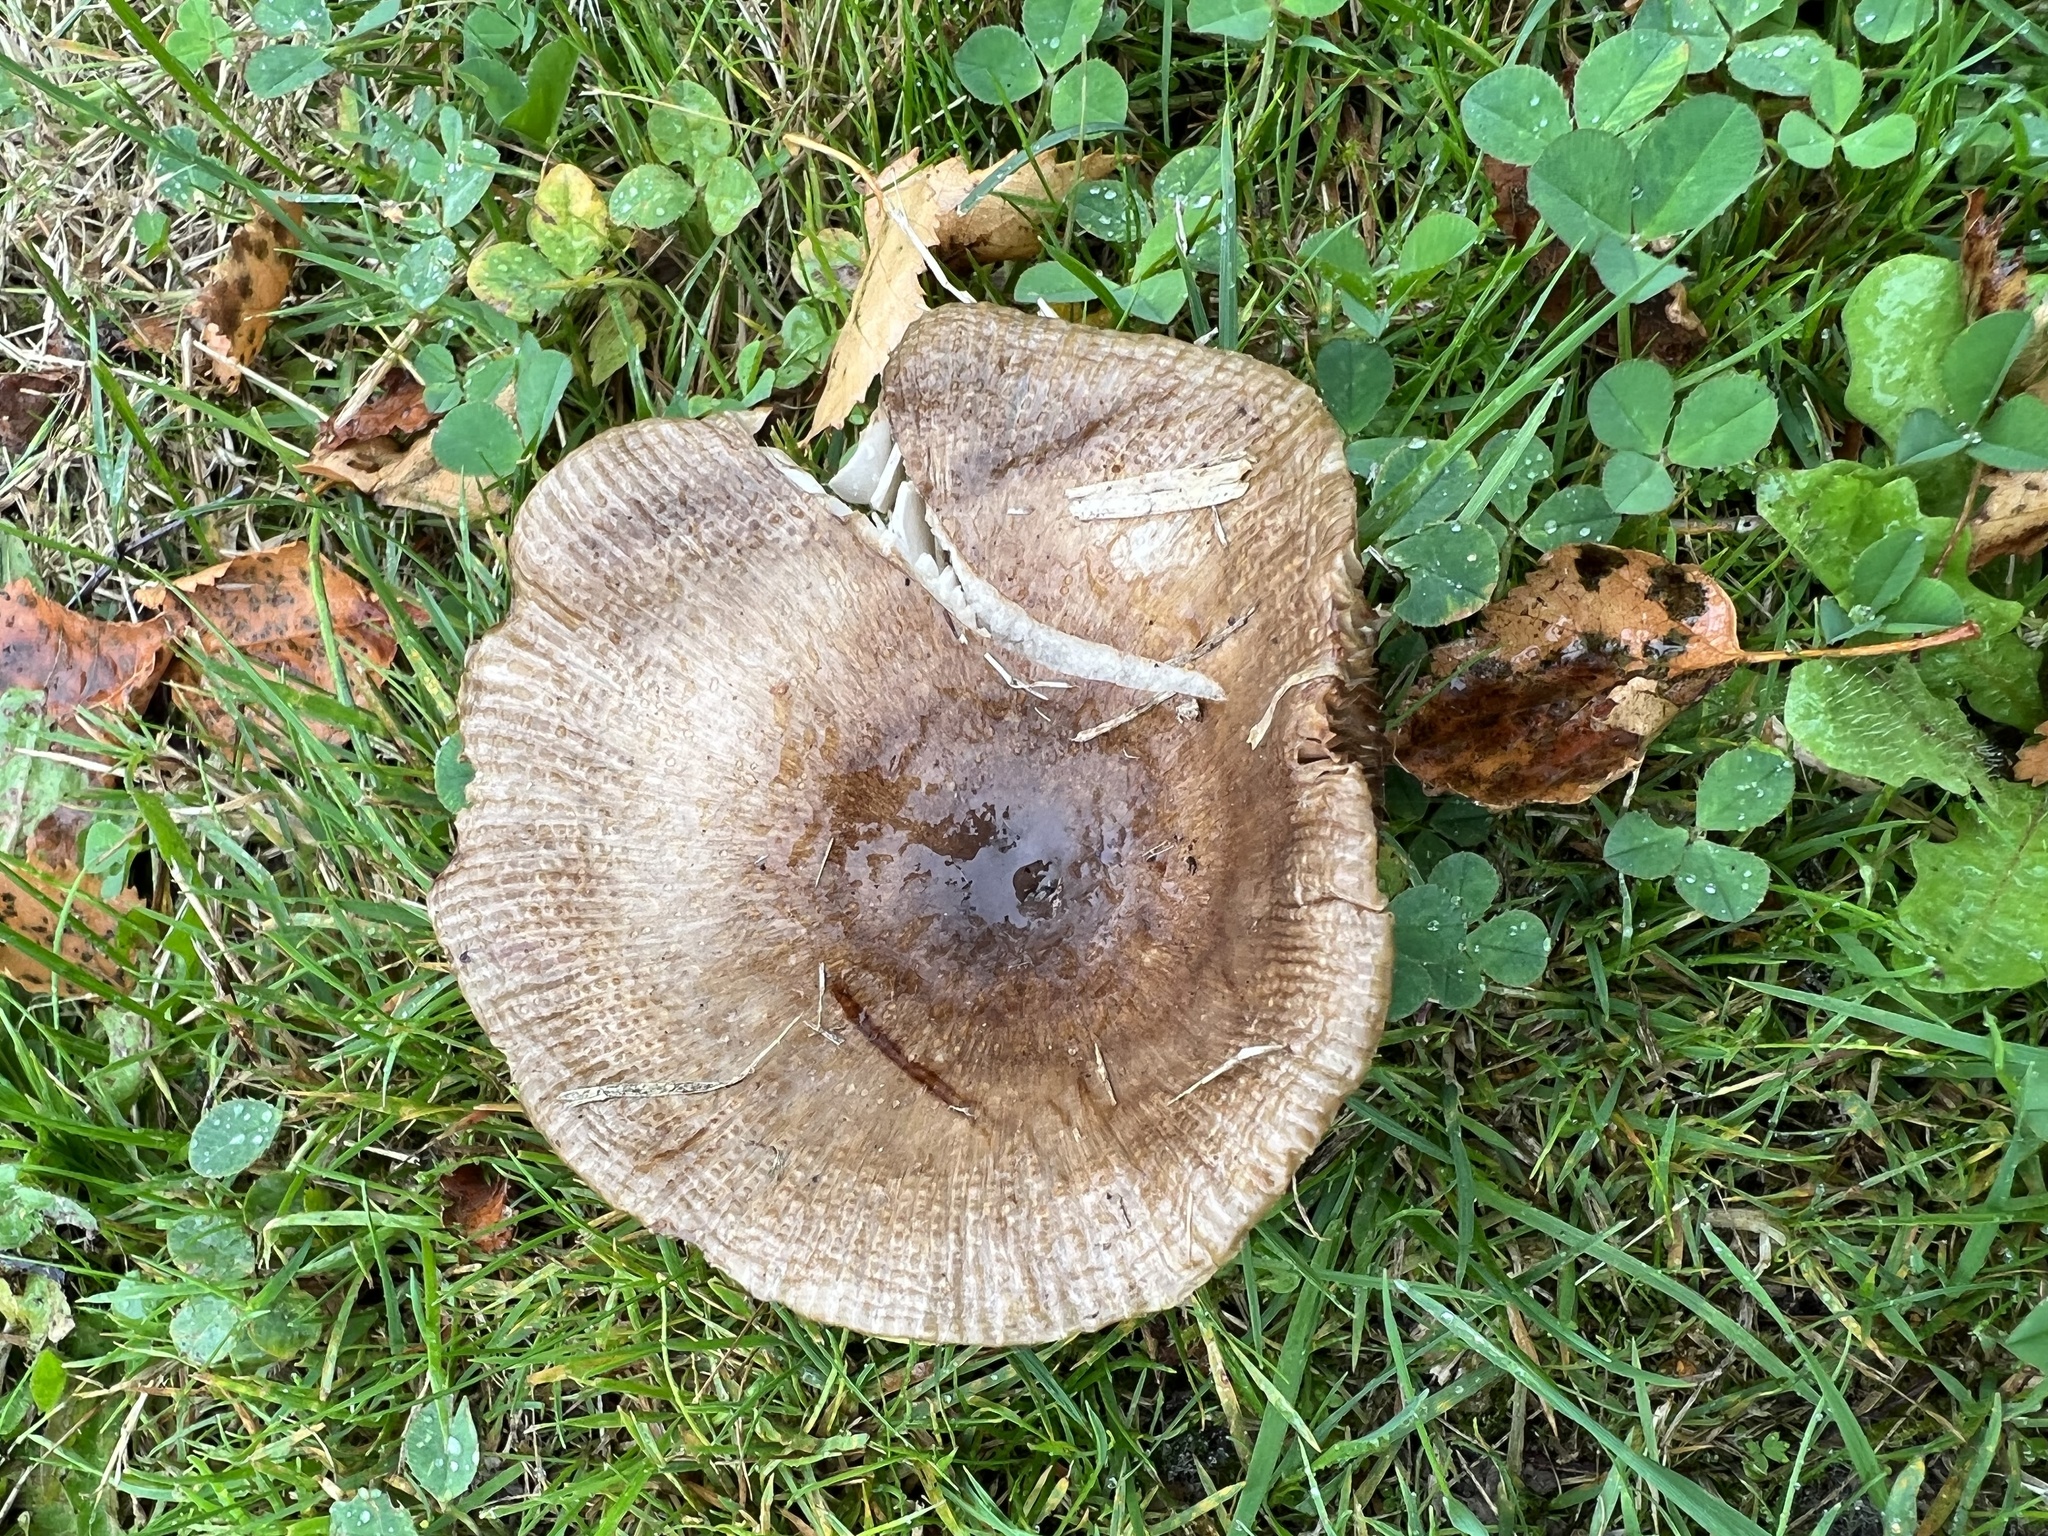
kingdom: Fungi
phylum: Basidiomycota
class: Agaricomycetes
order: Russulales
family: Russulaceae
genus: Russula
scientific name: Russula amoenolens
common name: Camembert brittlegill
